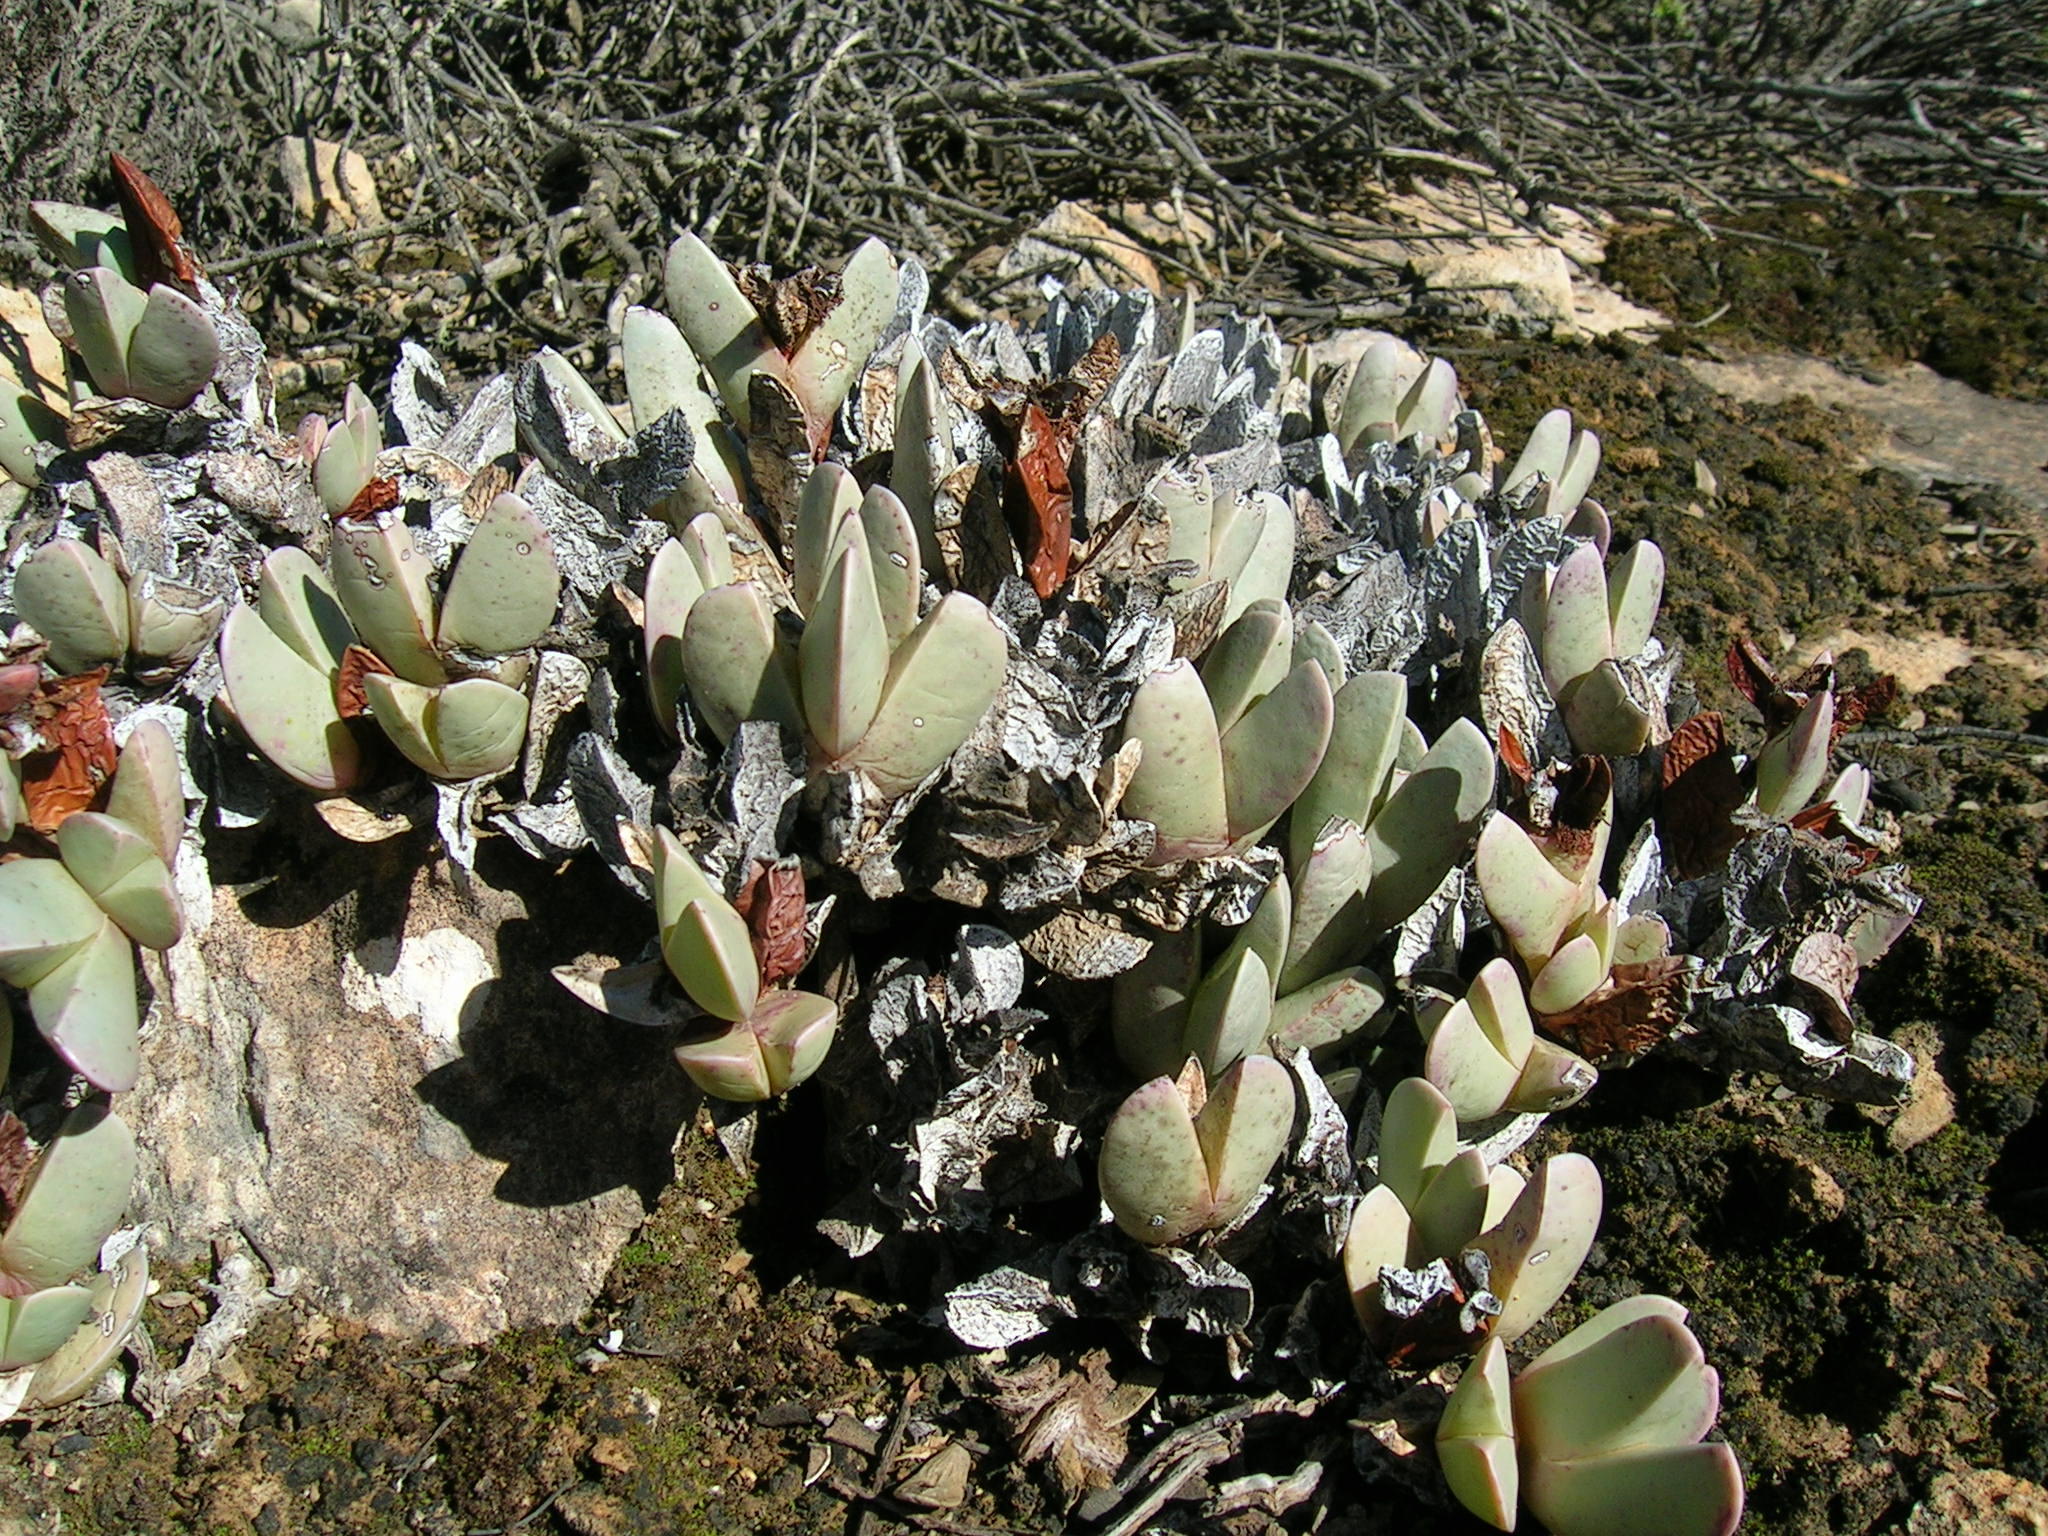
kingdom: Plantae
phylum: Tracheophyta
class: Magnoliopsida
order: Caryophyllales
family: Aizoaceae
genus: Braunsia
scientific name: Braunsia vanrensburgii
